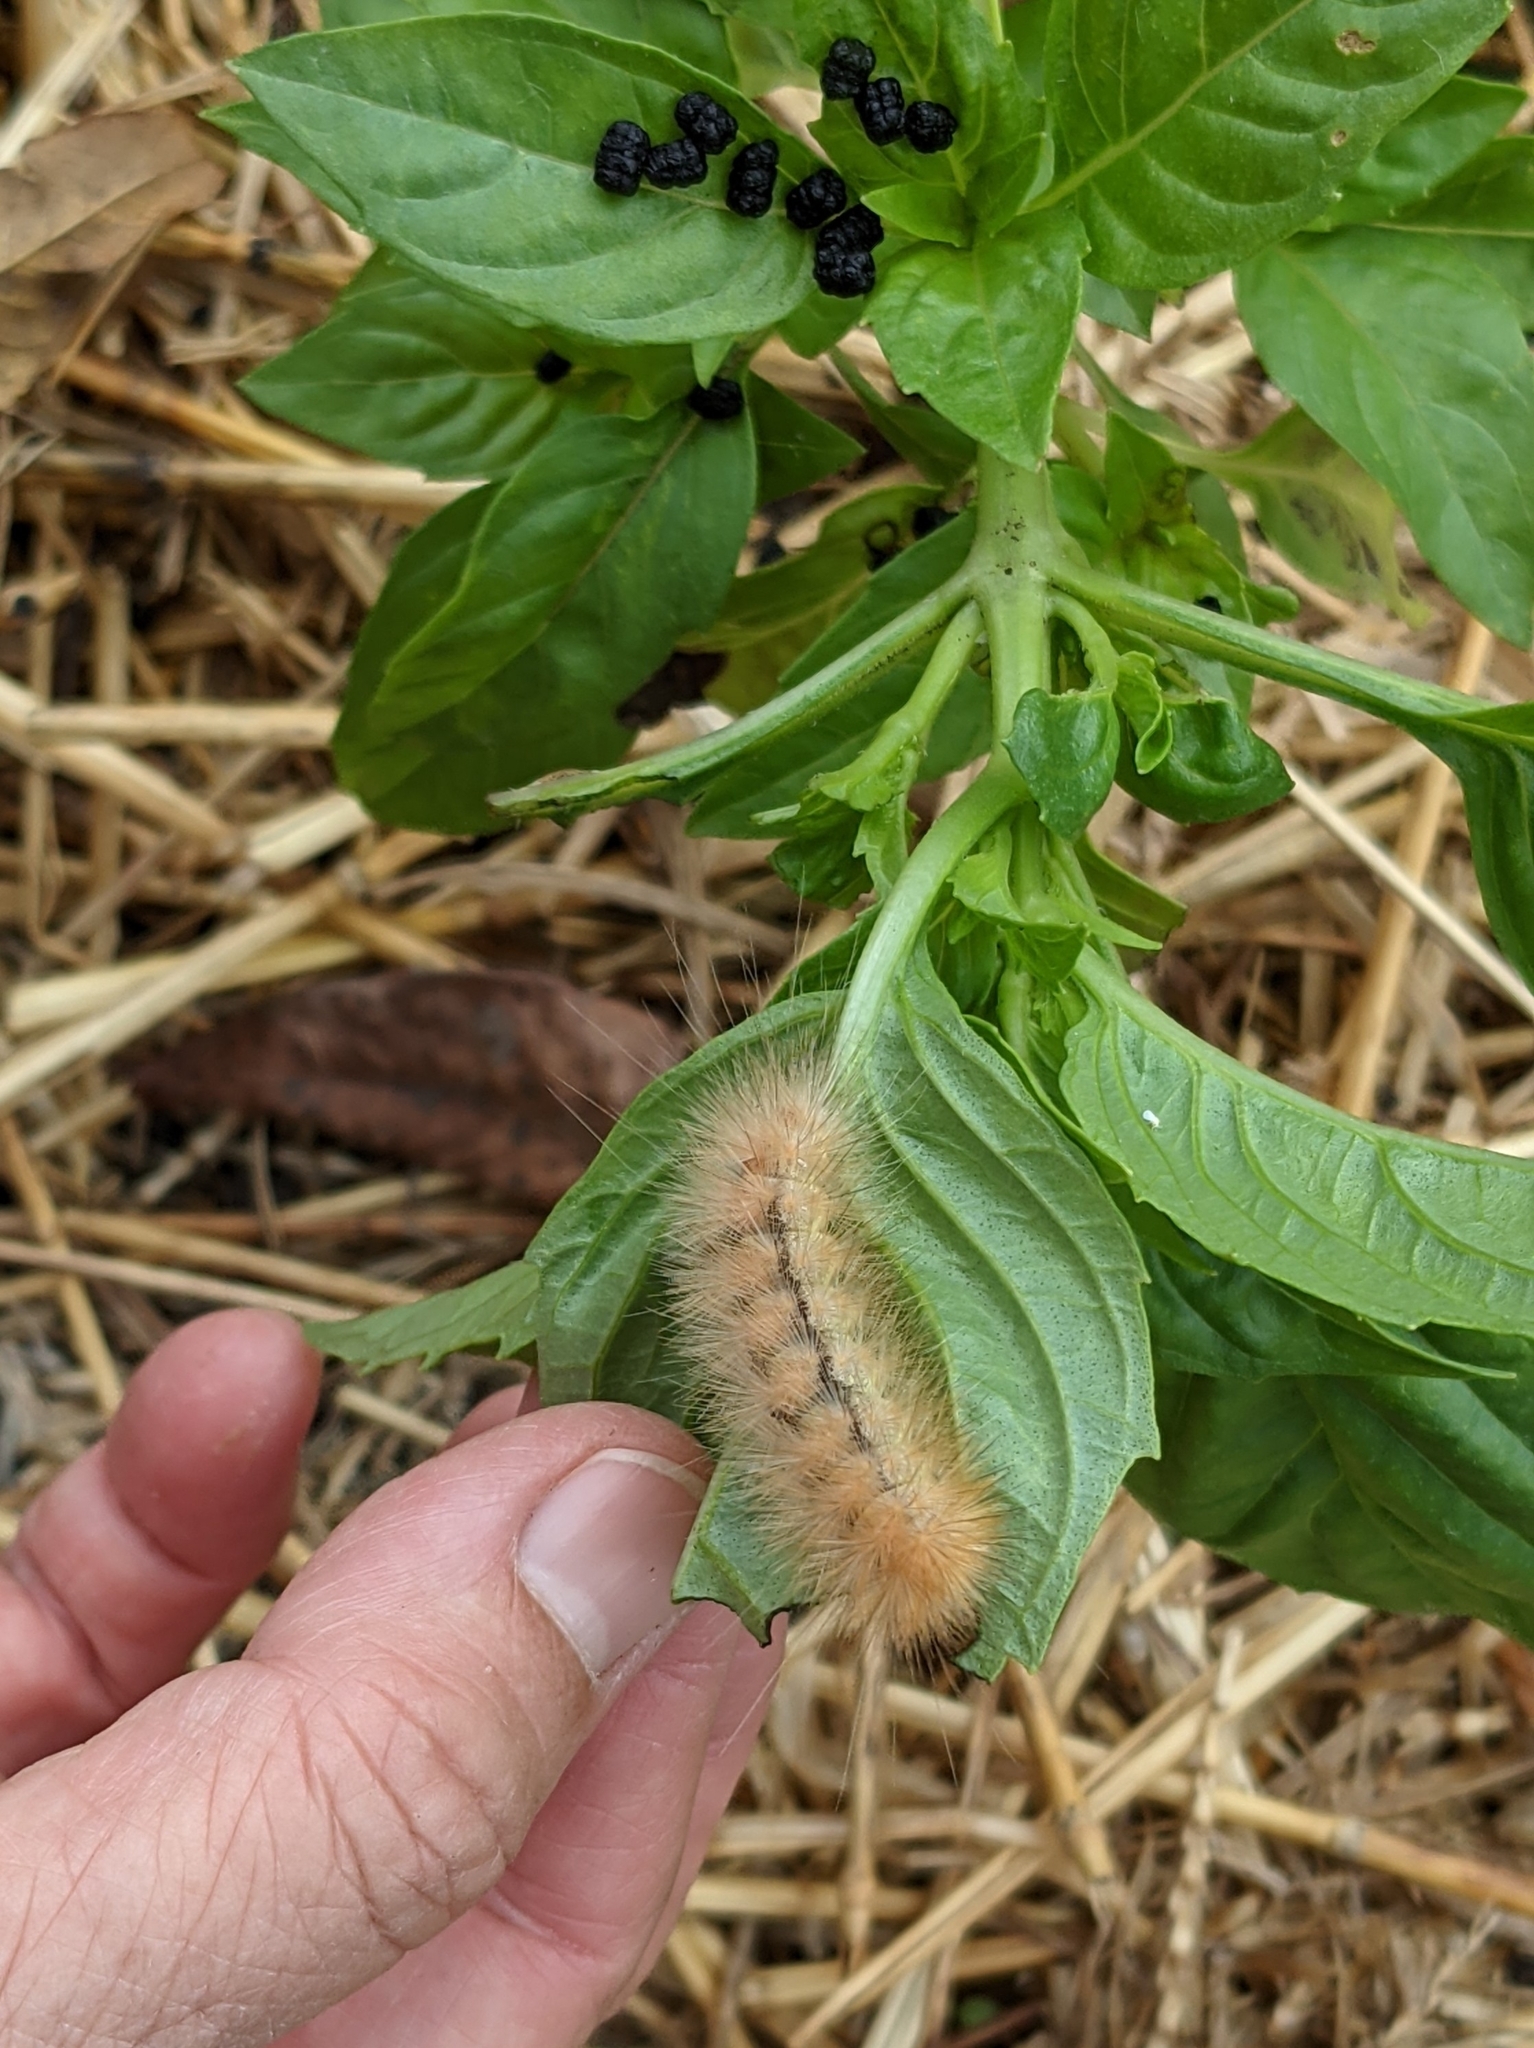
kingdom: Animalia
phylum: Arthropoda
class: Insecta
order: Lepidoptera
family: Erebidae
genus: Spilosoma
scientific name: Spilosoma virginica
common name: Virginia tiger moth
